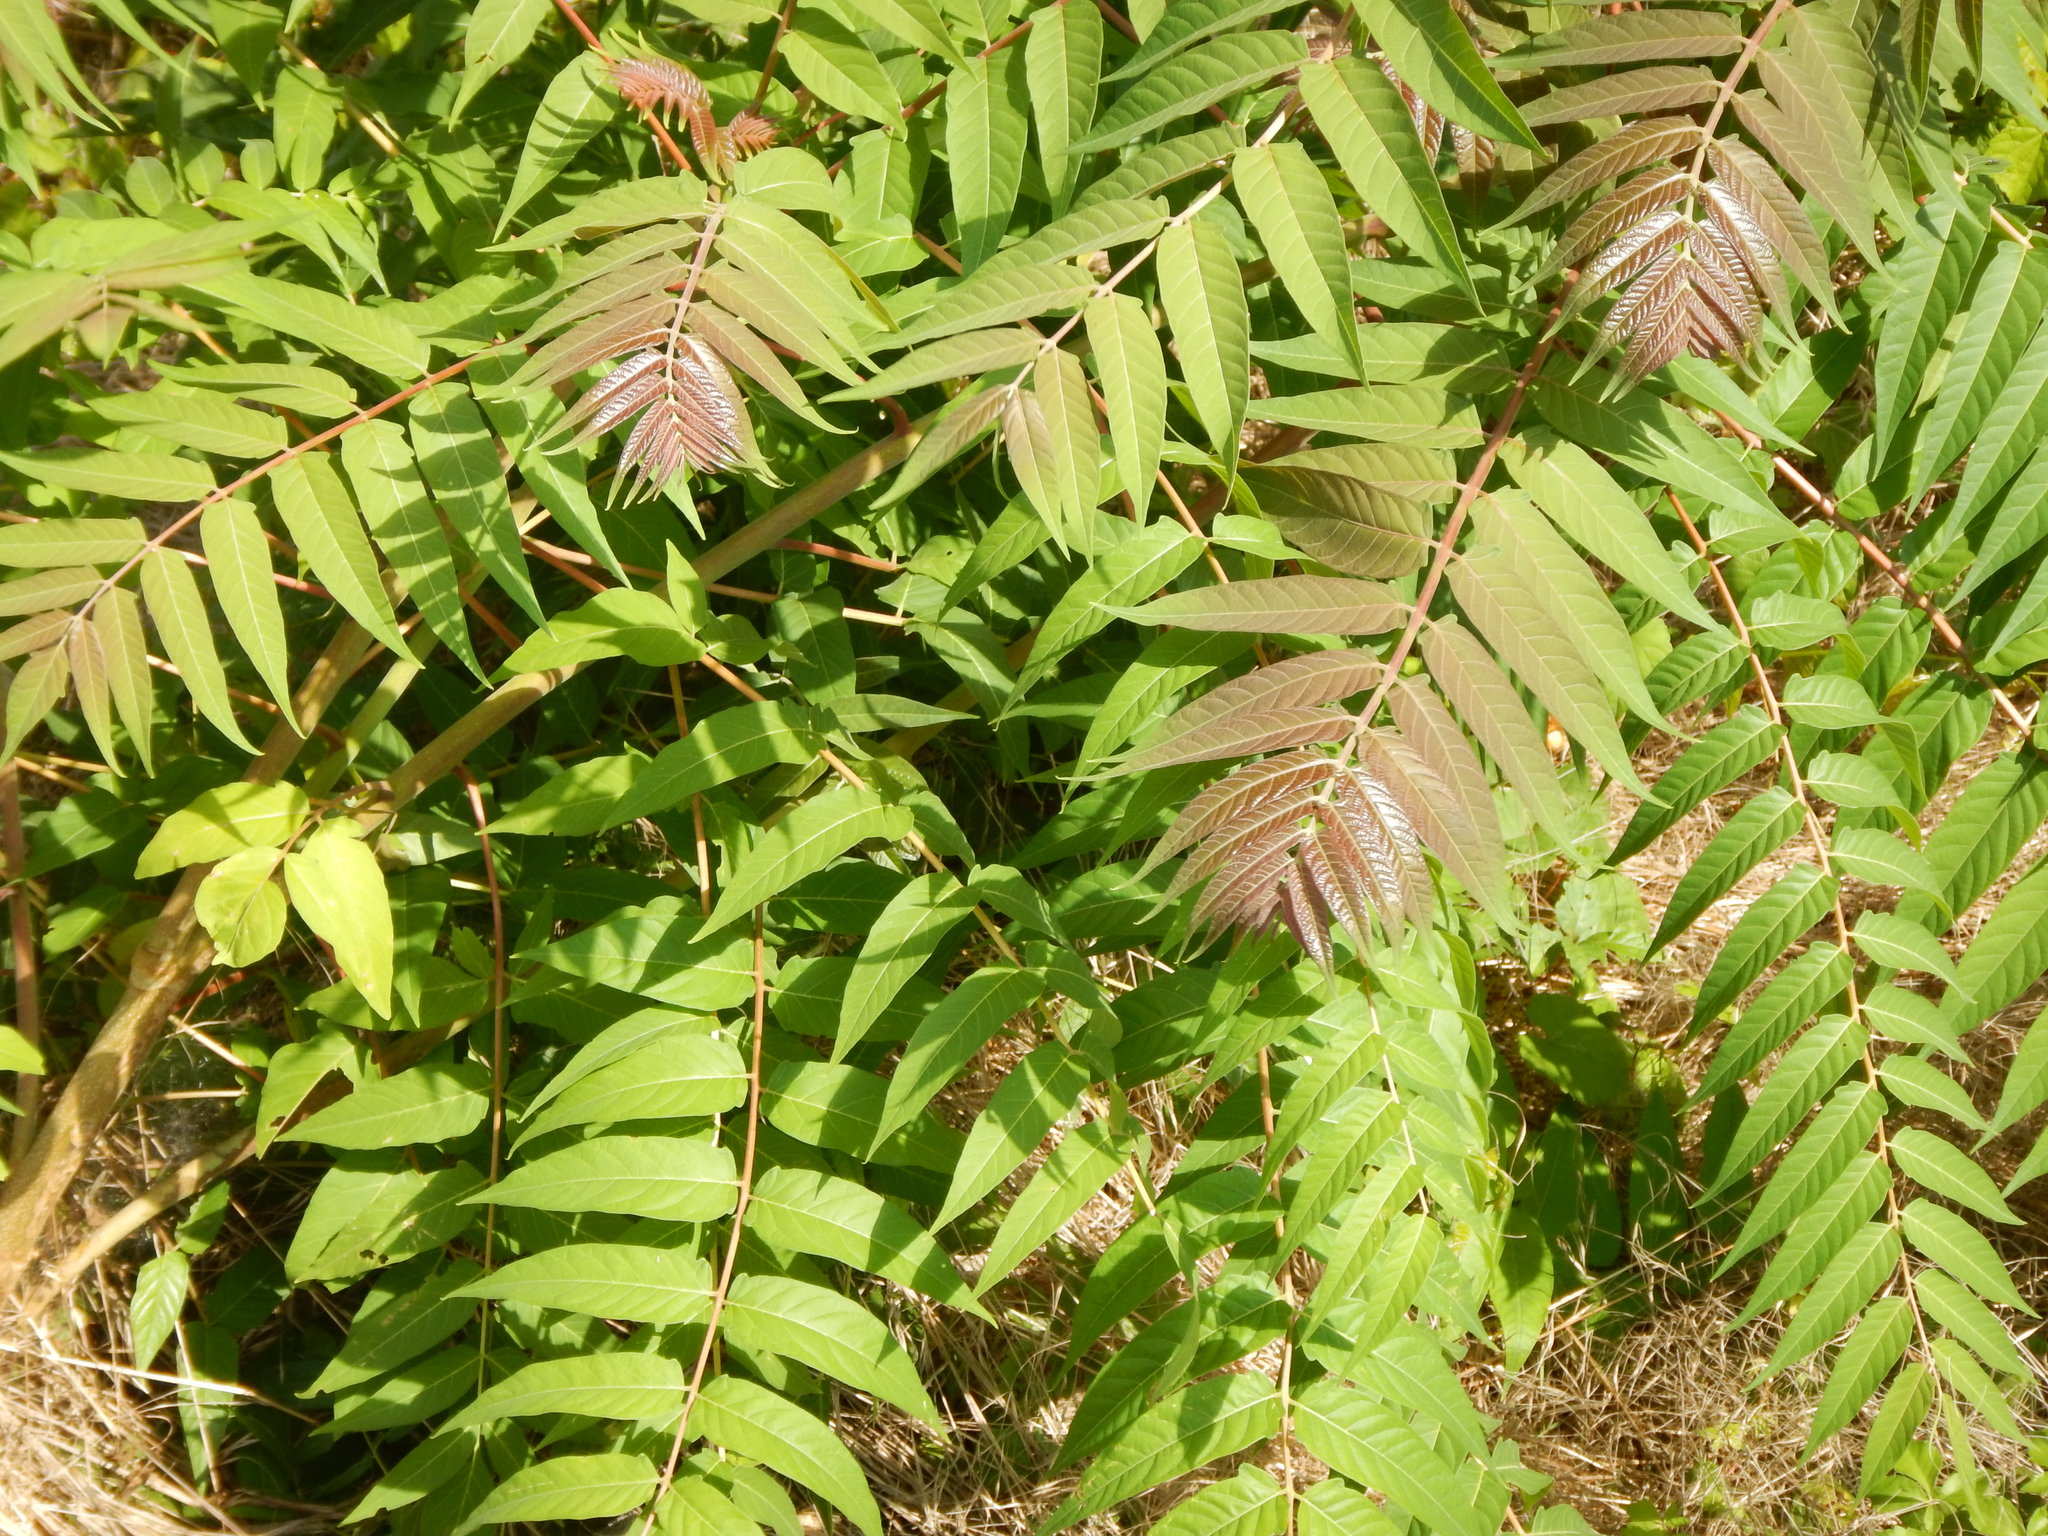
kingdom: Plantae
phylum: Tracheophyta
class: Magnoliopsida
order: Sapindales
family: Simaroubaceae
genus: Ailanthus
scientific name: Ailanthus altissima
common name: Tree-of-heaven
